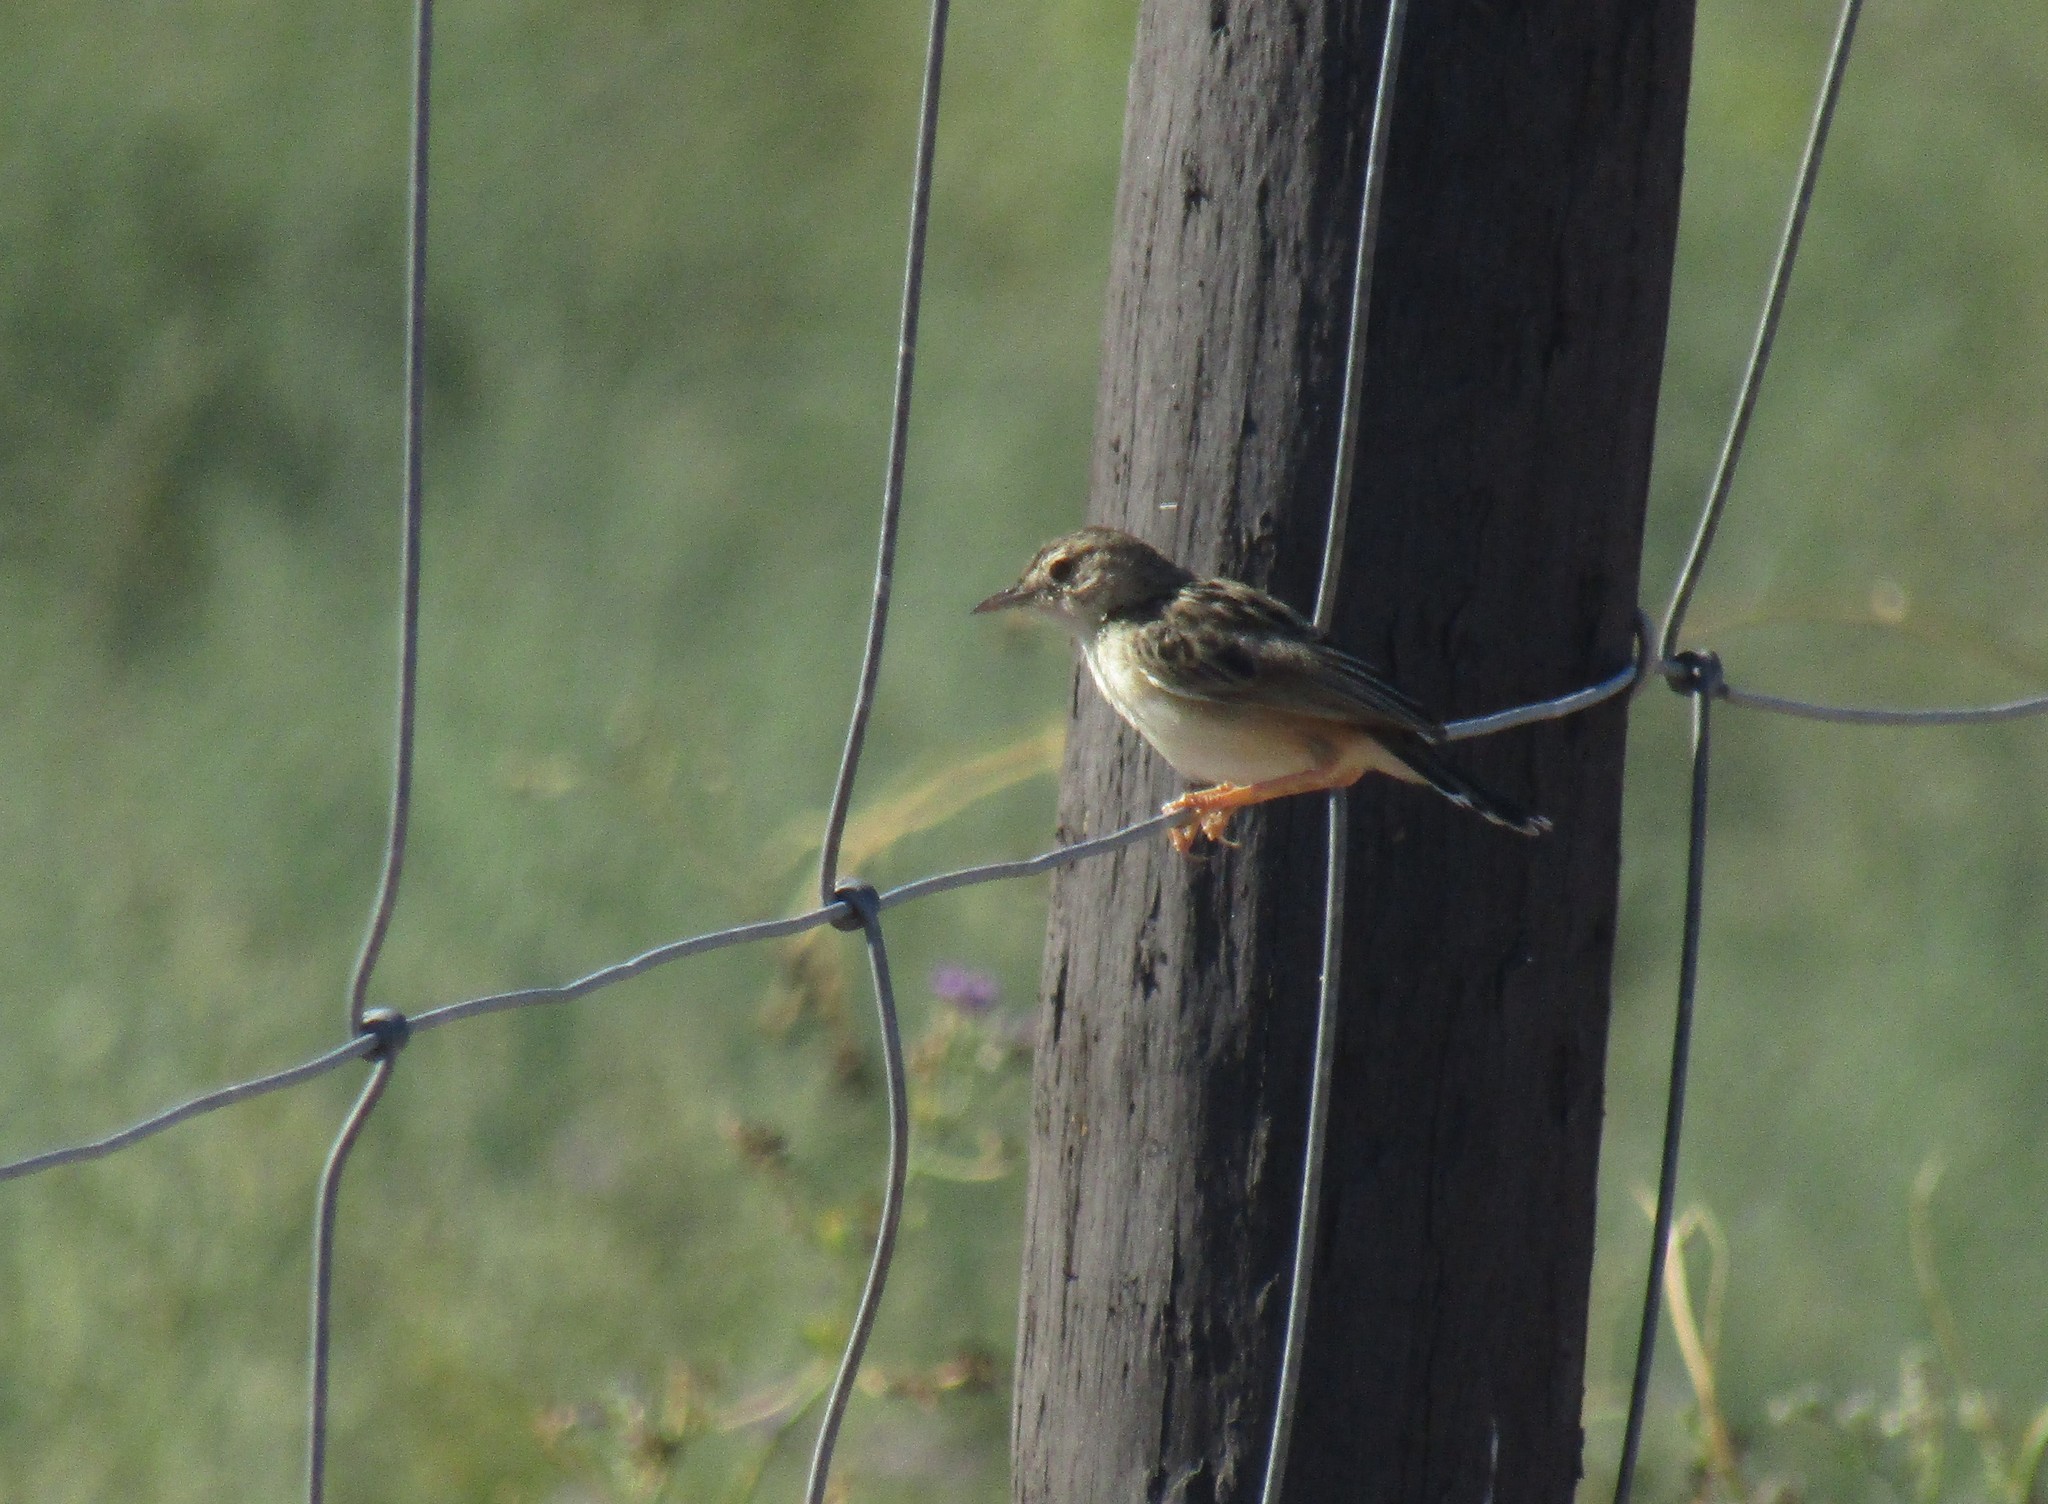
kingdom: Animalia
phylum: Chordata
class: Aves
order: Passeriformes
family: Cisticolidae
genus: Cisticola
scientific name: Cisticola juncidis
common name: Zitting cisticola
